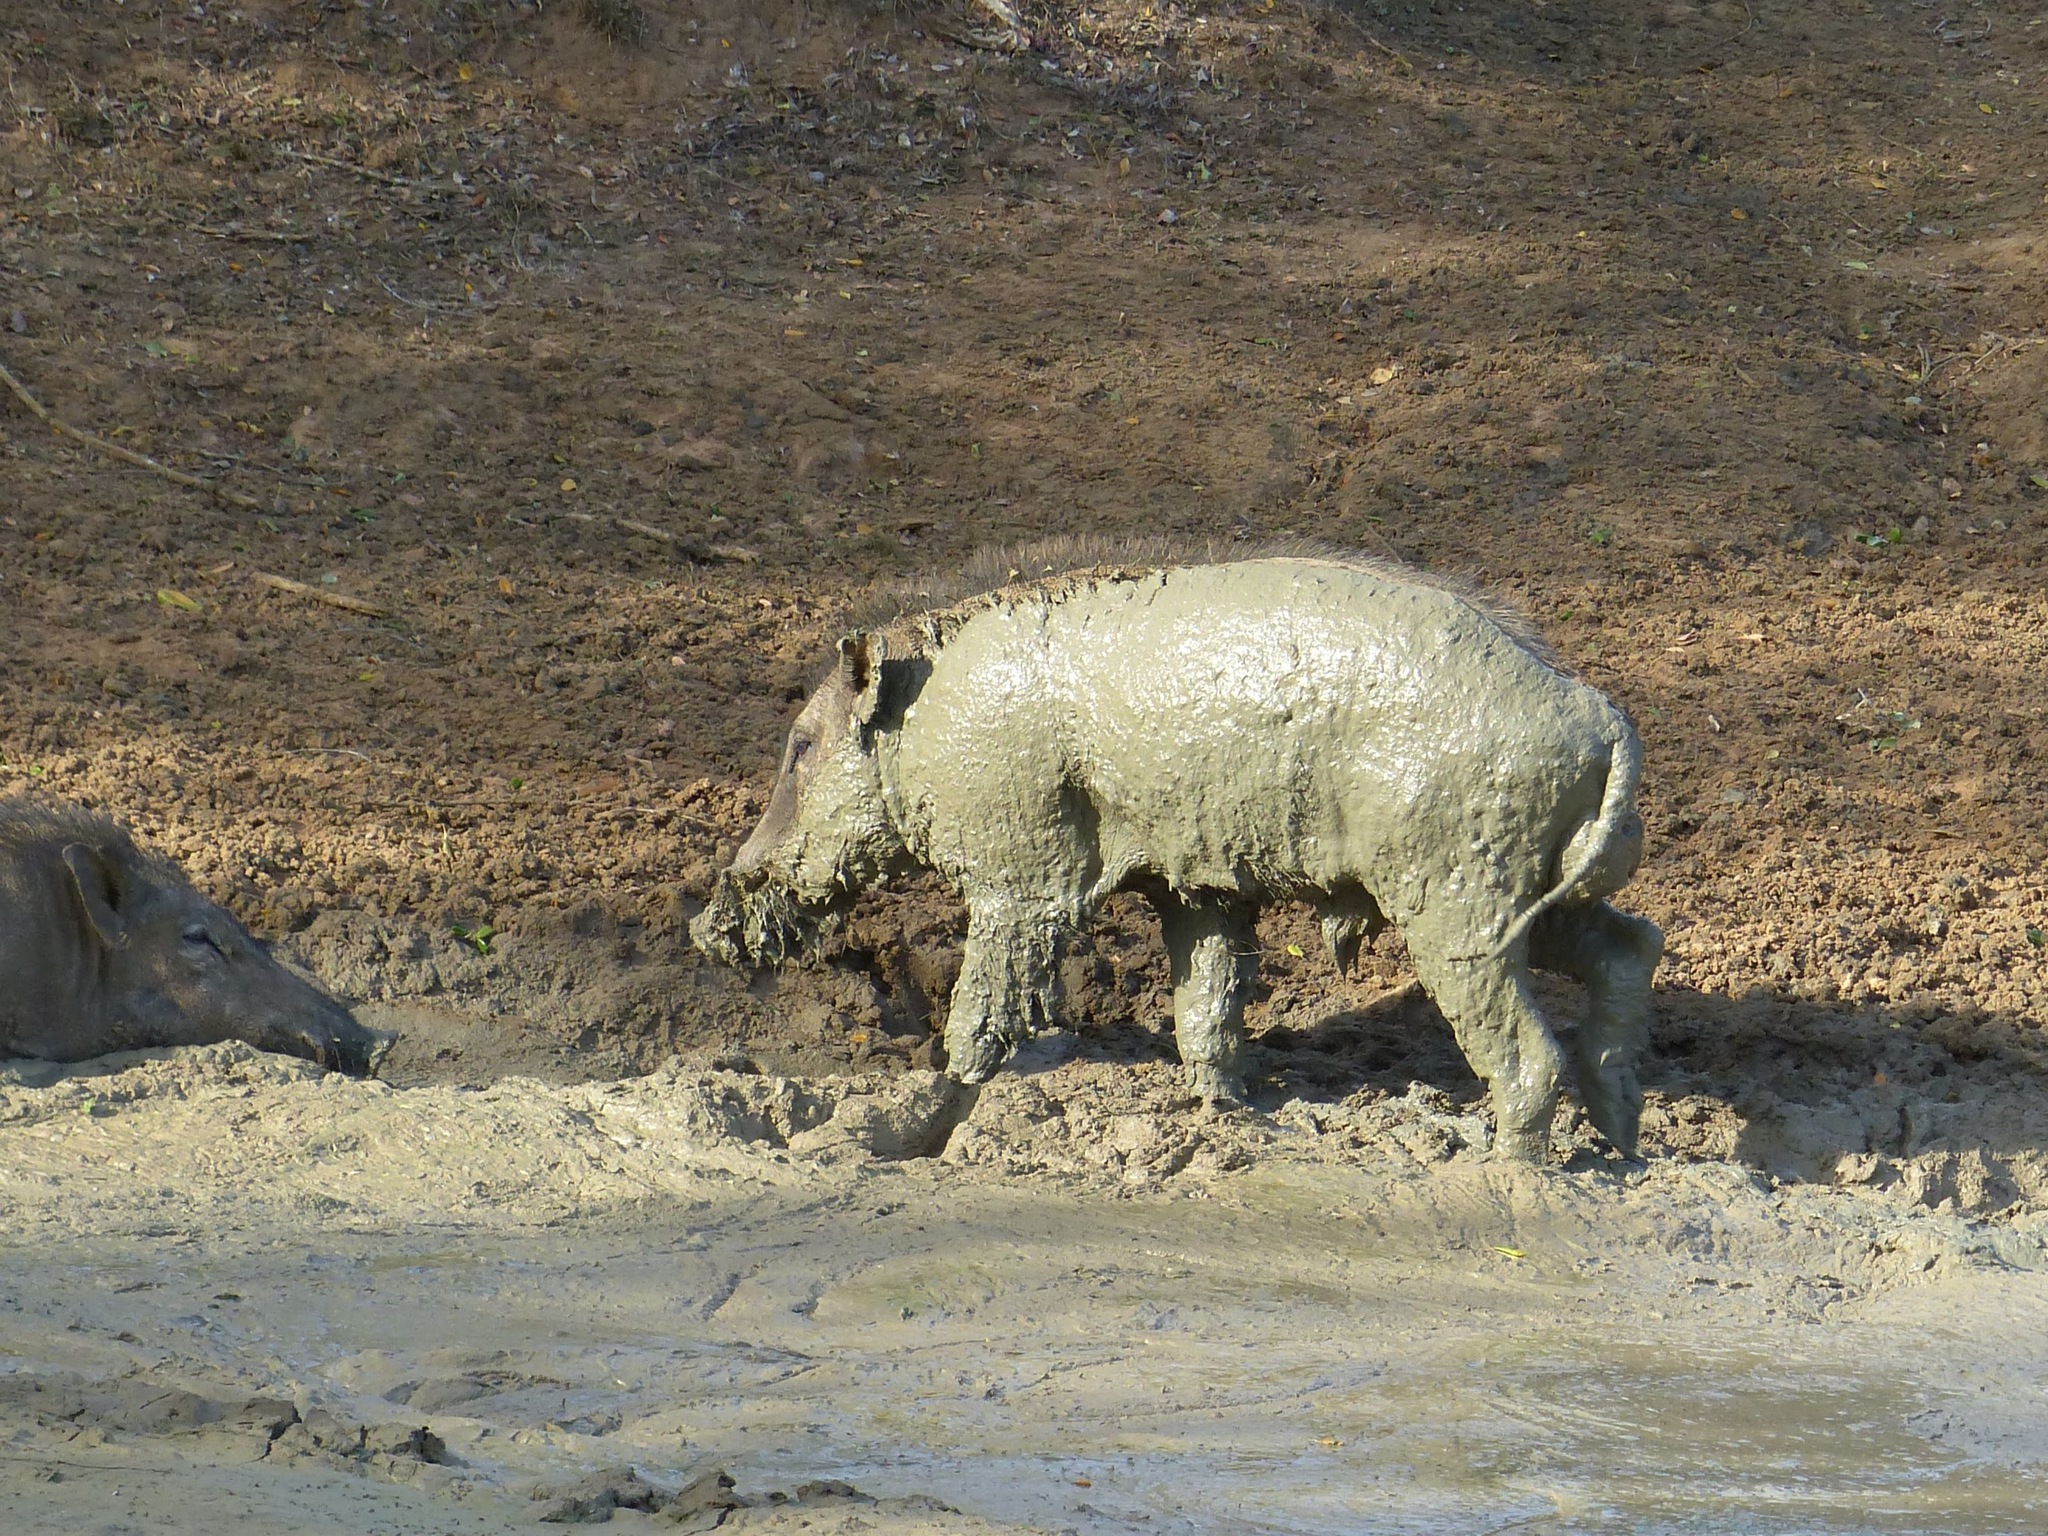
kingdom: Animalia
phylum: Chordata
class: Mammalia
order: Artiodactyla
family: Suidae
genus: Sus
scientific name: Sus scrofa
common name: Wild boar
